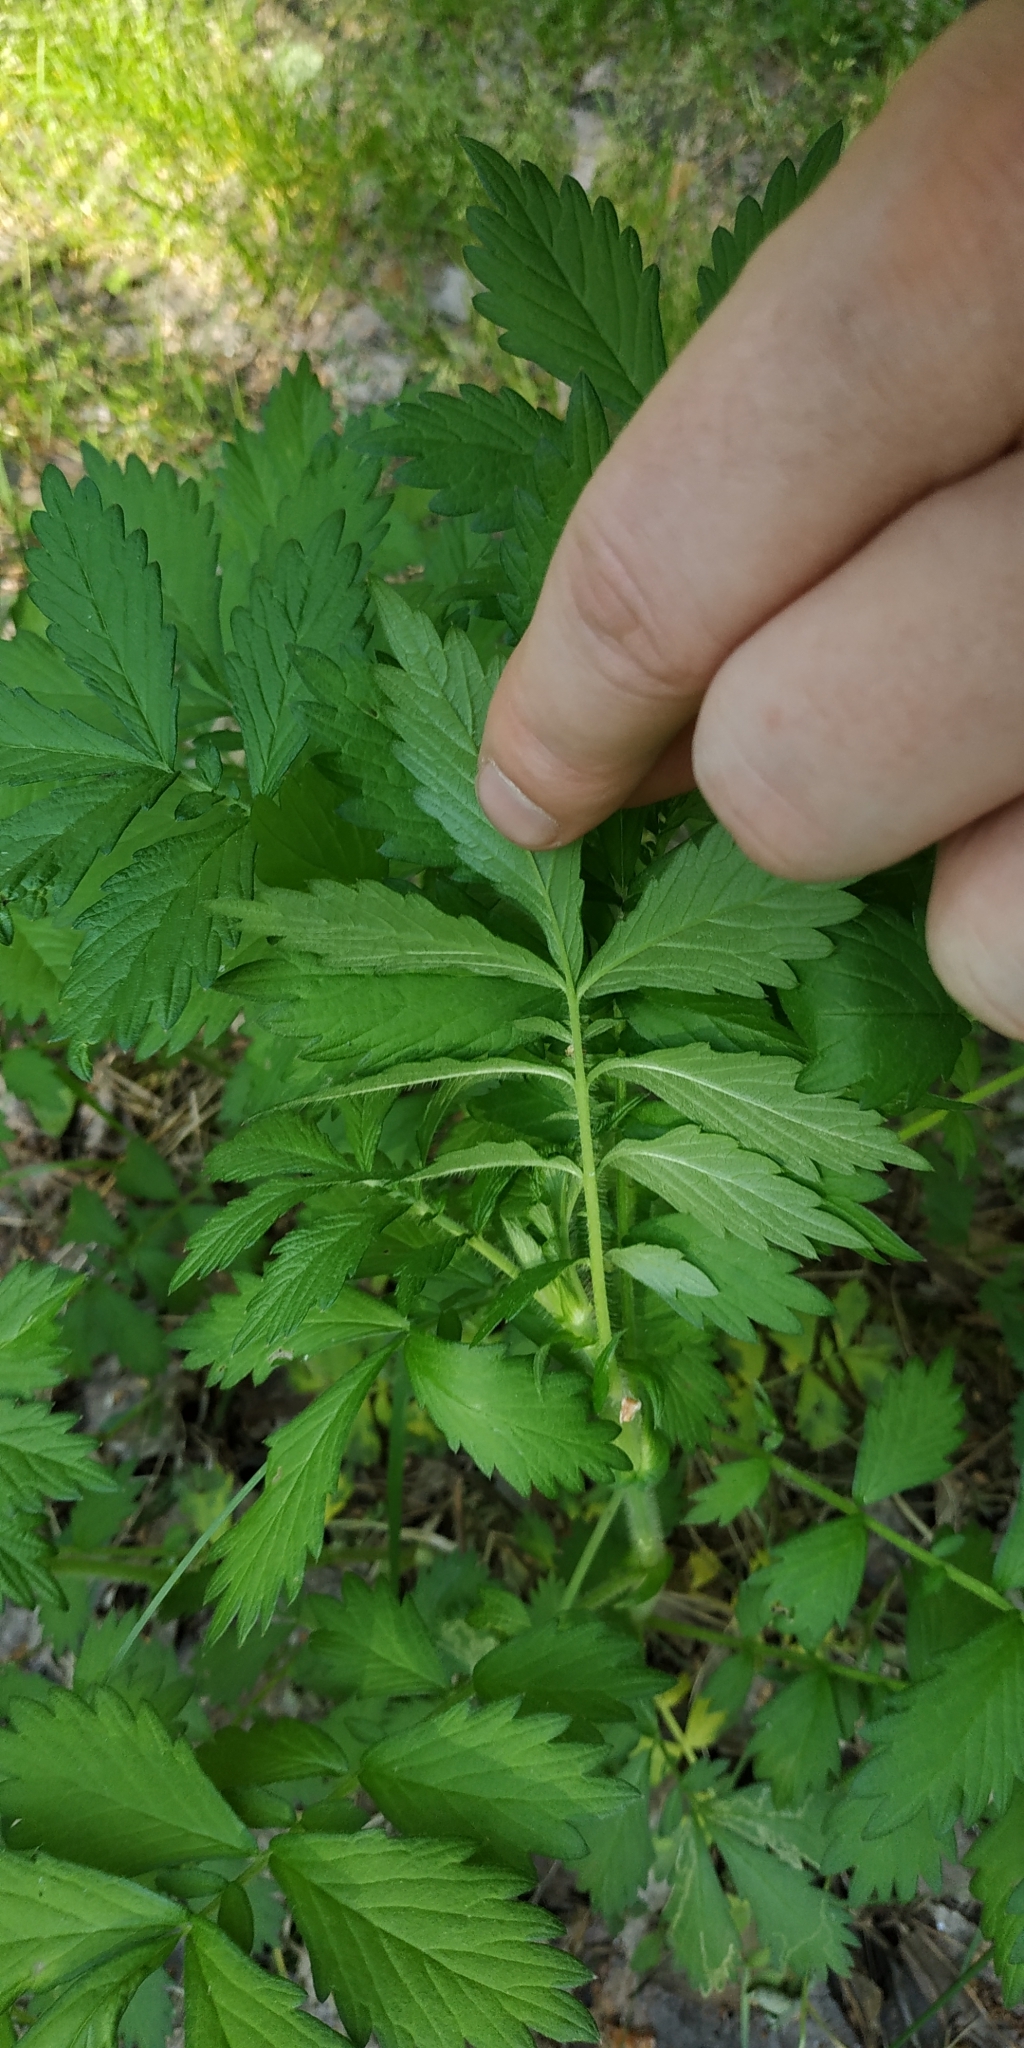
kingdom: Plantae
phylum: Tracheophyta
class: Magnoliopsida
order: Rosales
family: Rosaceae
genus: Agrimonia
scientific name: Agrimonia pilosa
